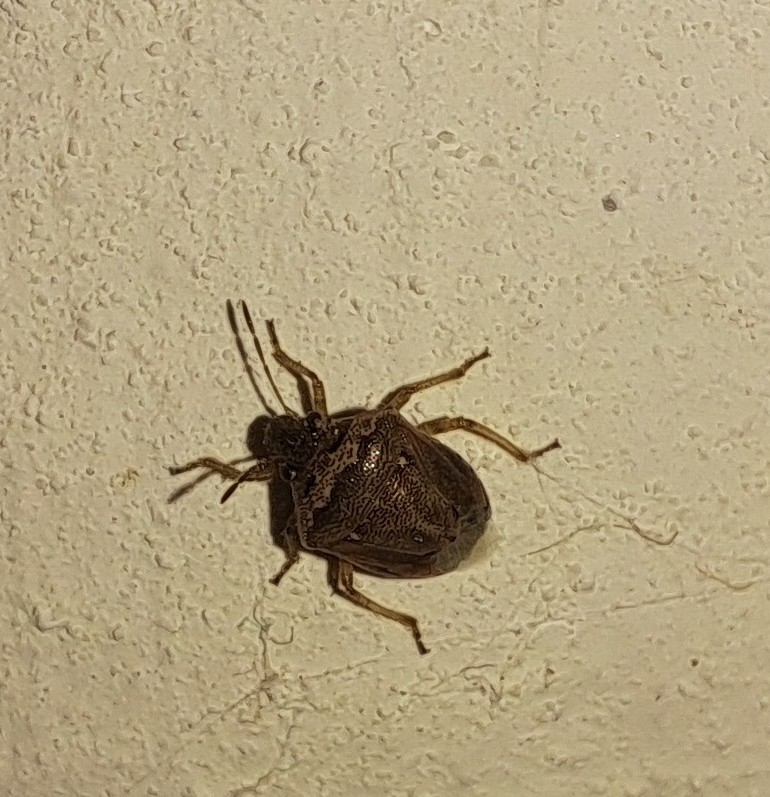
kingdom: Animalia
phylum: Arthropoda
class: Insecta
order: Hemiptera
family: Pentatomidae
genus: Eysarcoris
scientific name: Eysarcoris ventralis
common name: White-spotted stink bug
